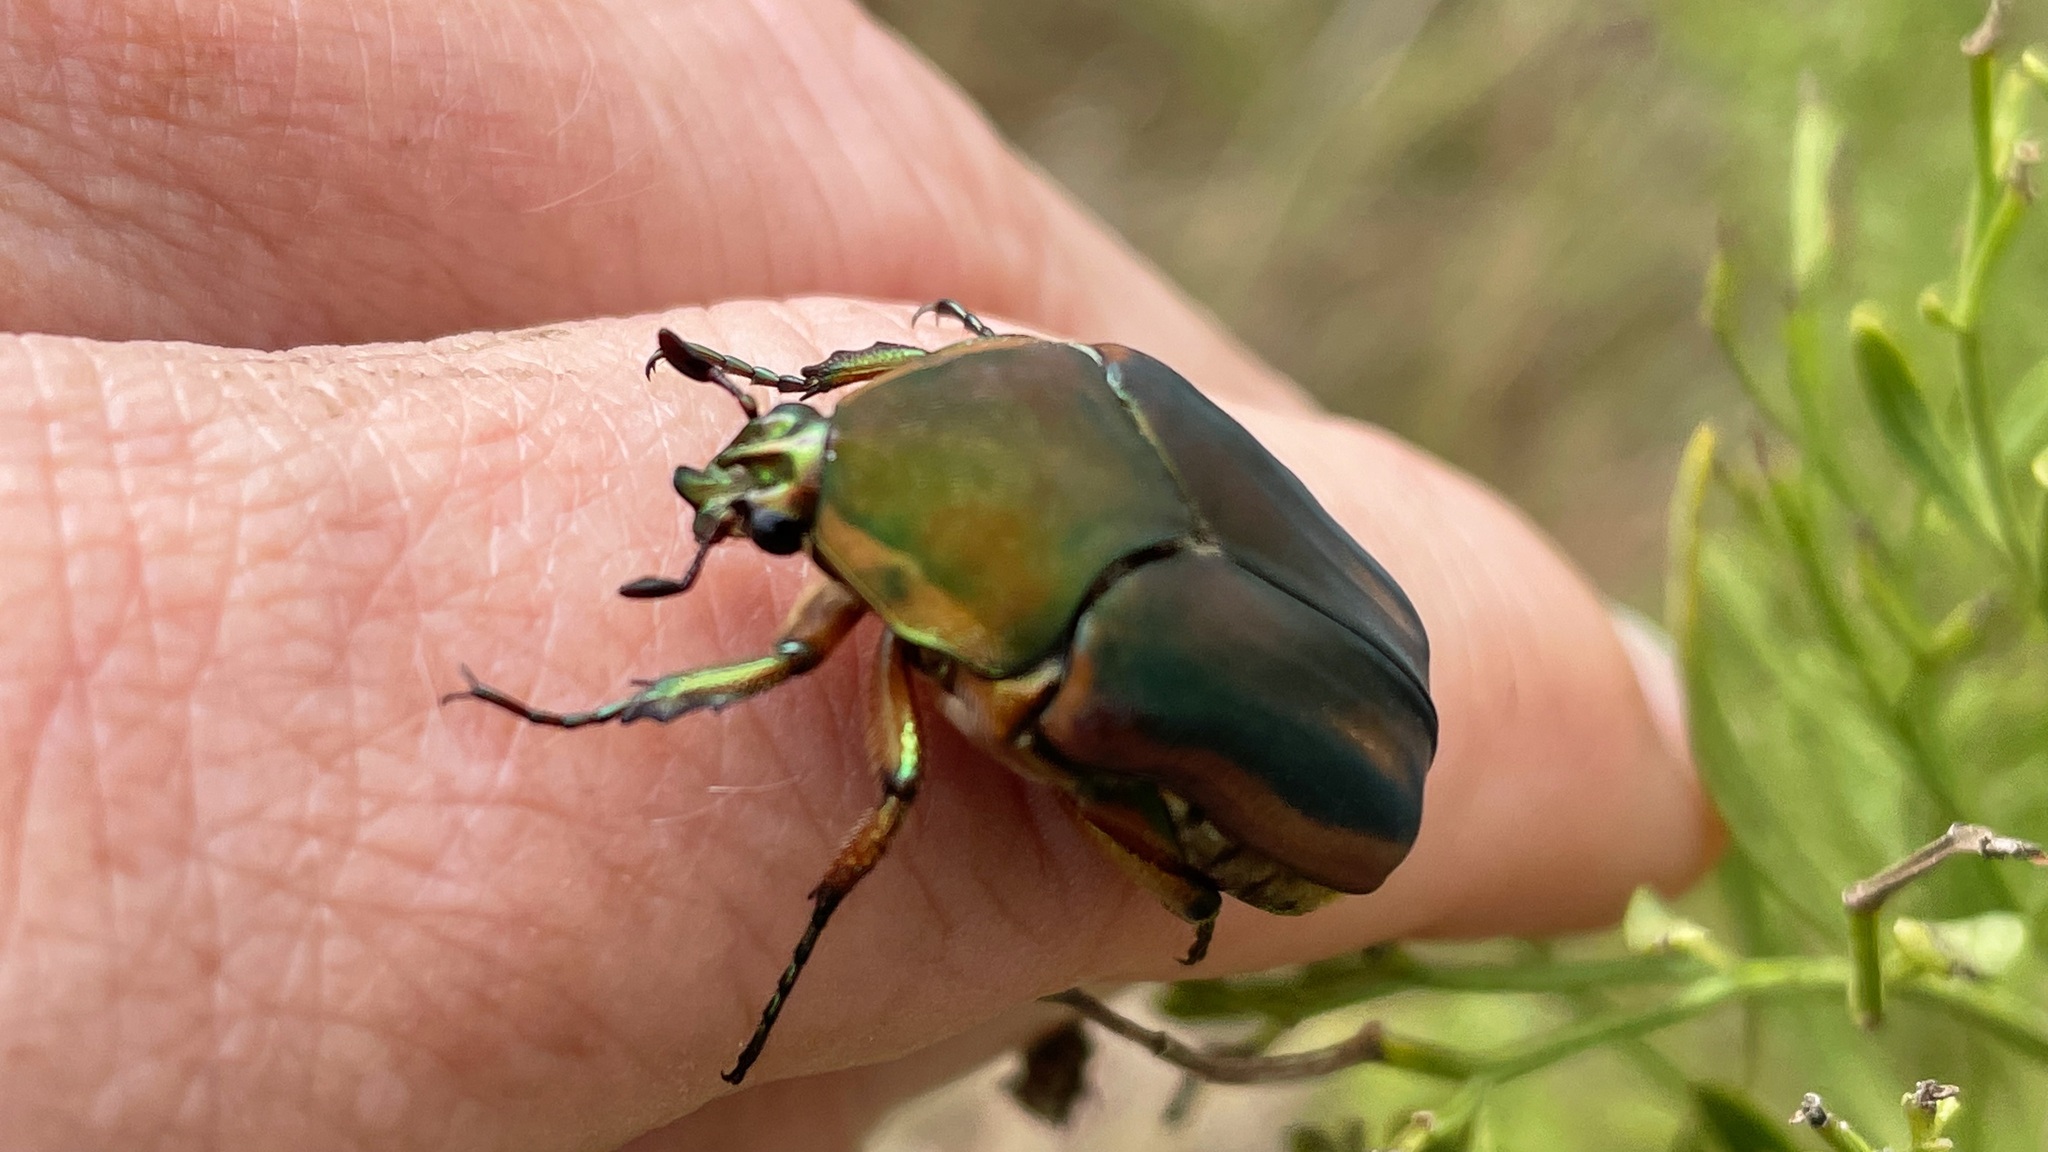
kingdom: Animalia
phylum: Arthropoda
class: Insecta
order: Coleoptera
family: Scarabaeidae
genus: Cotinis
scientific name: Cotinis nitida
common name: Common green june beetle
